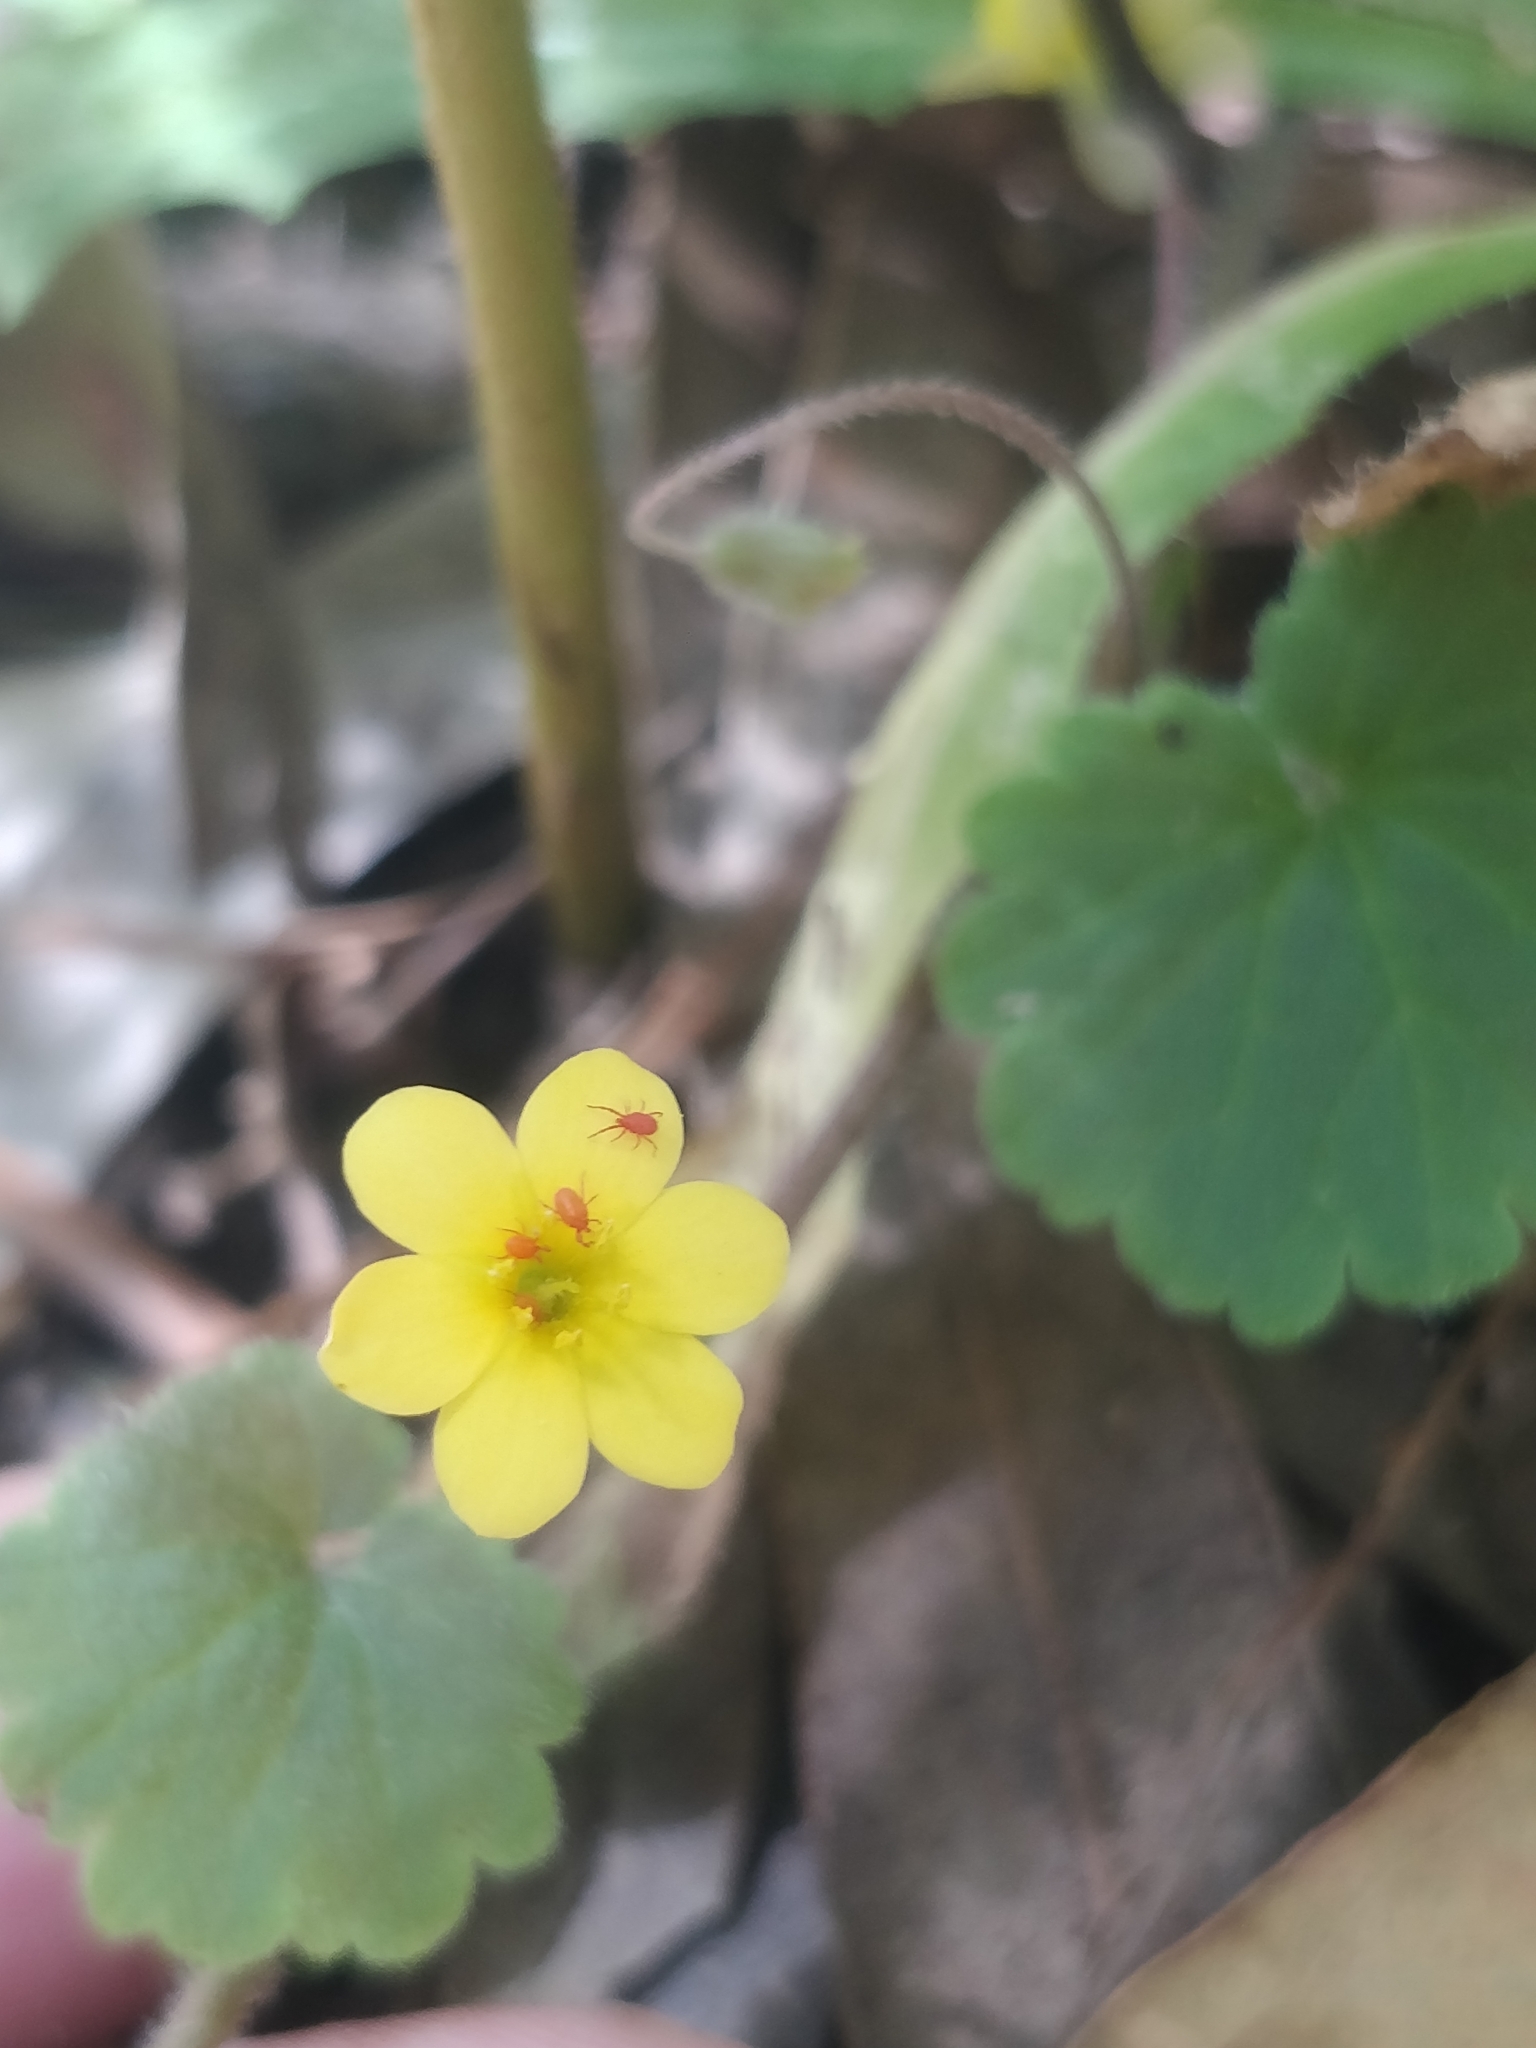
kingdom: Plantae
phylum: Tracheophyta
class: Magnoliopsida
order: Lamiales
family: Plantaginaceae
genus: Sibthorpia
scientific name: Sibthorpia peregrina
